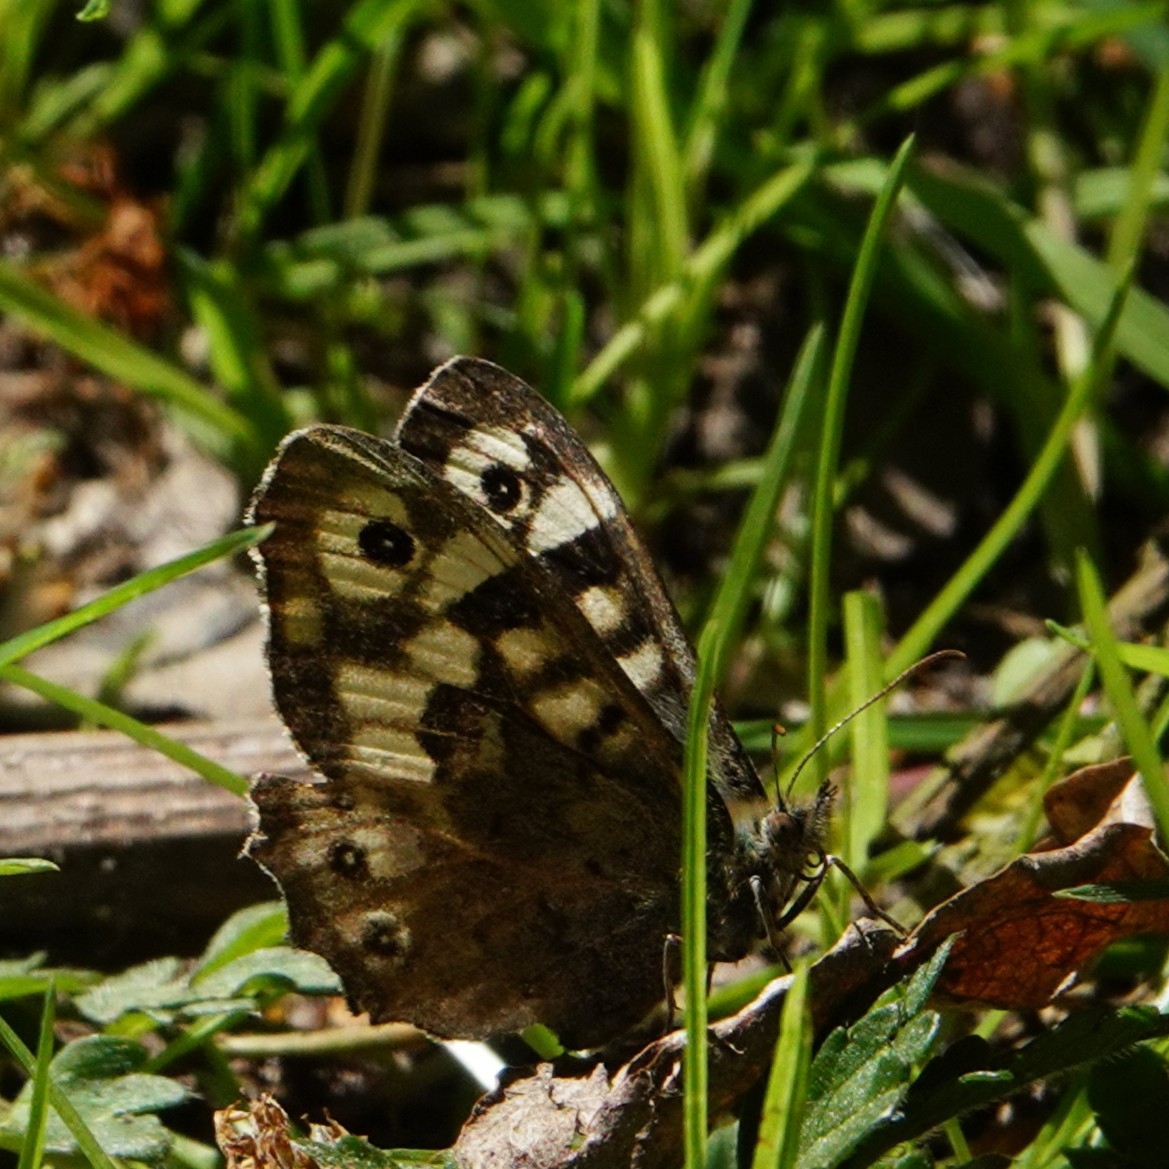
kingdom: Animalia
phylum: Arthropoda
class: Insecta
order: Lepidoptera
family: Nymphalidae
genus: Pararge
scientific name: Pararge aegeria
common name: Speckled wood
